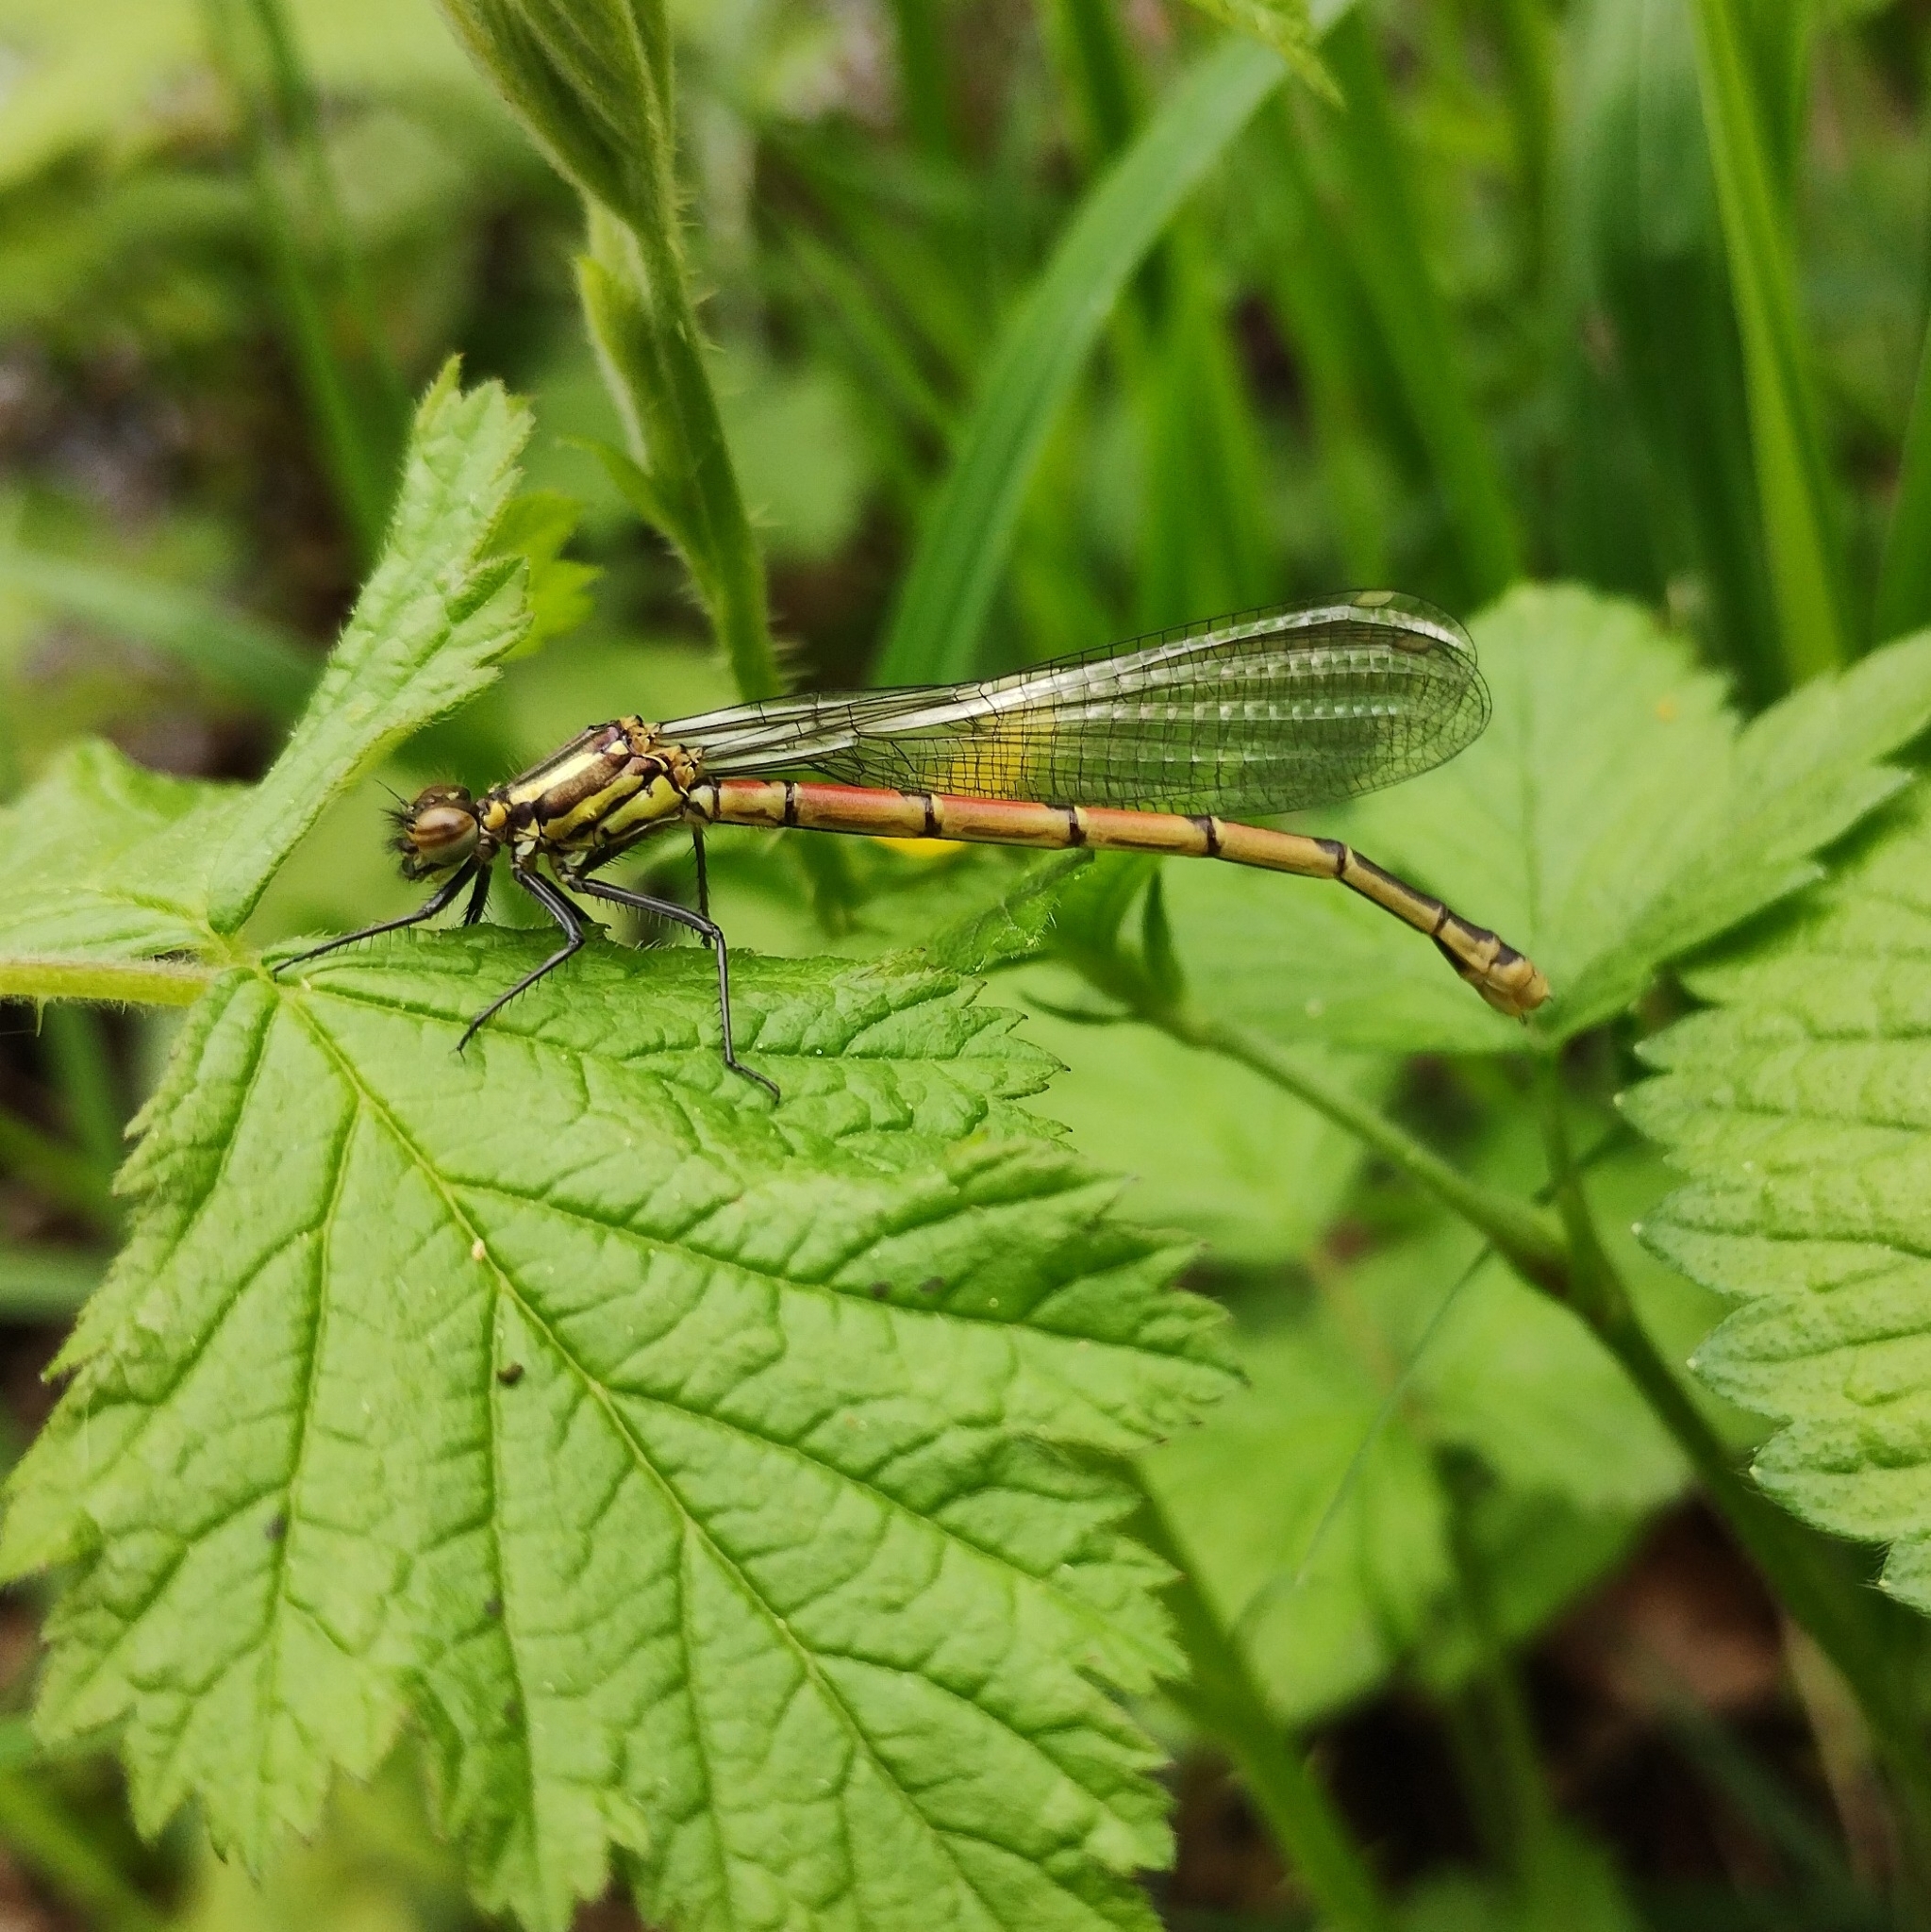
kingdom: Animalia
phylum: Arthropoda
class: Insecta
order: Odonata
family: Coenagrionidae
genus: Pyrrhosoma
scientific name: Pyrrhosoma nymphula
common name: Large red damsel
